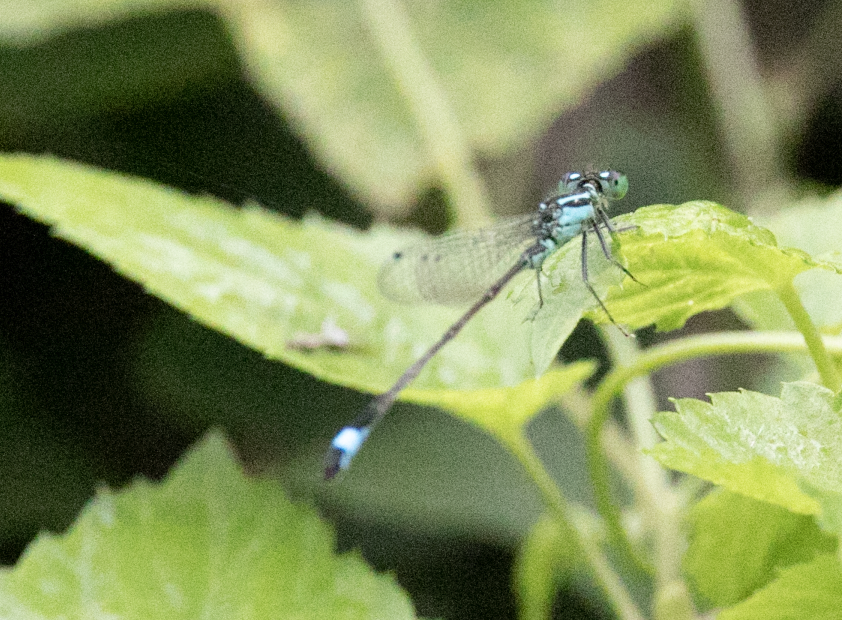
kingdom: Animalia
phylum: Arthropoda
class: Insecta
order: Odonata
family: Coenagrionidae
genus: Ischnura
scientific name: Ischnura elegans
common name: Blue-tailed damselfly
